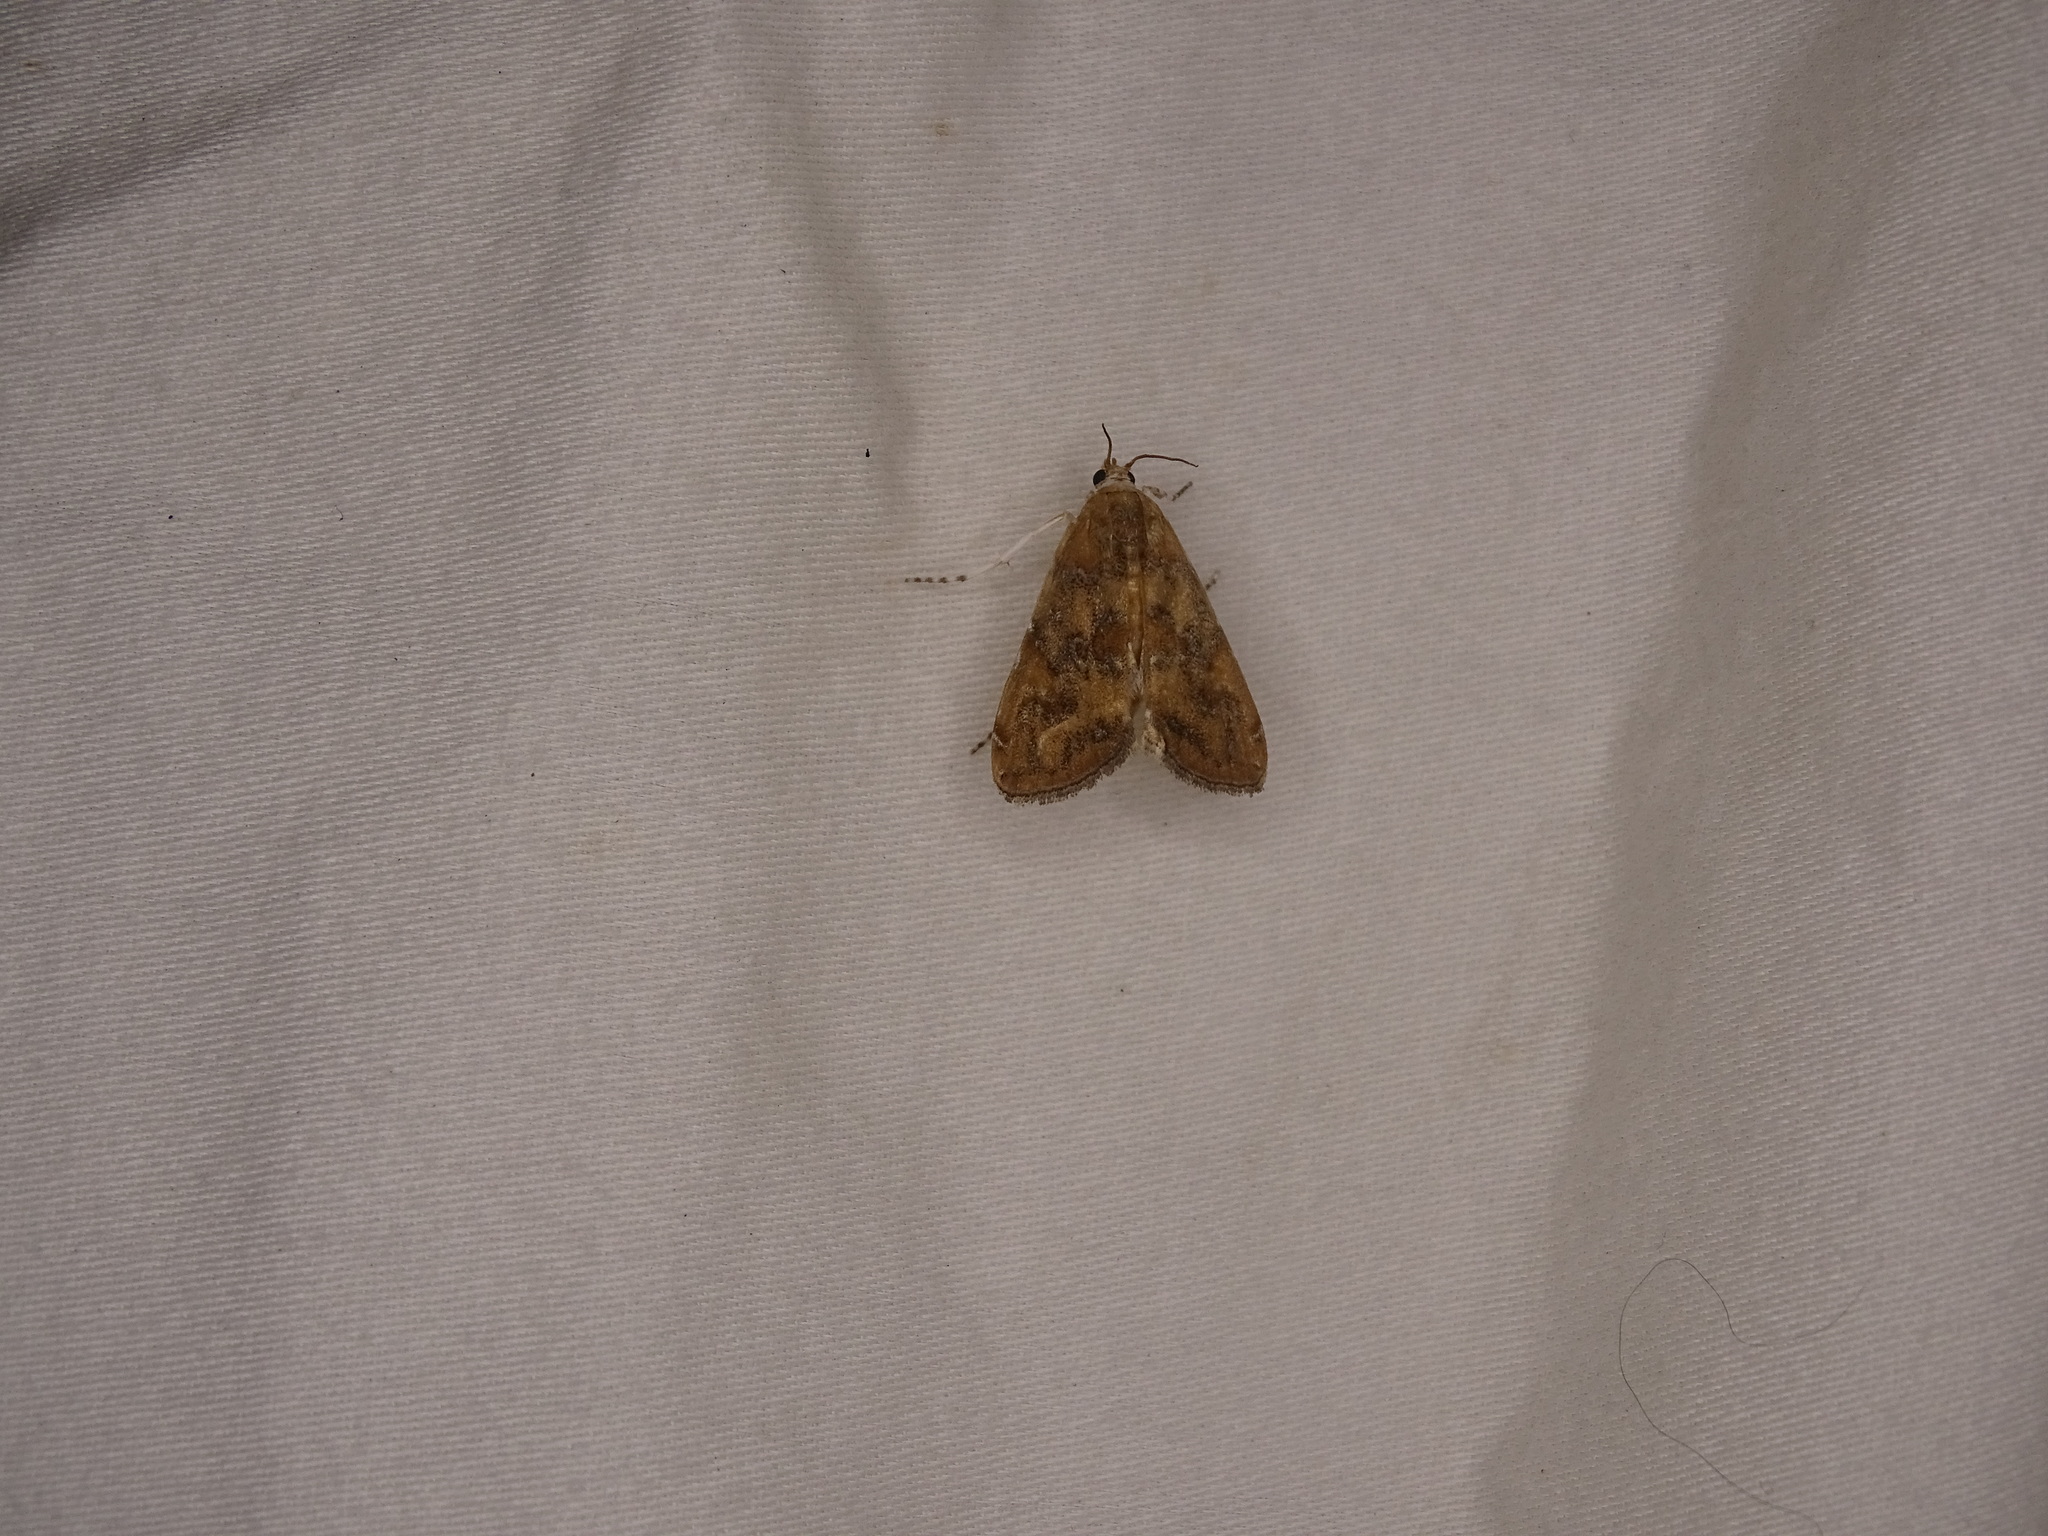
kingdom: Animalia
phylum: Arthropoda
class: Insecta
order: Lepidoptera
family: Crambidae
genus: Elophila
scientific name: Elophila gyralis
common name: Waterlily borer moth
